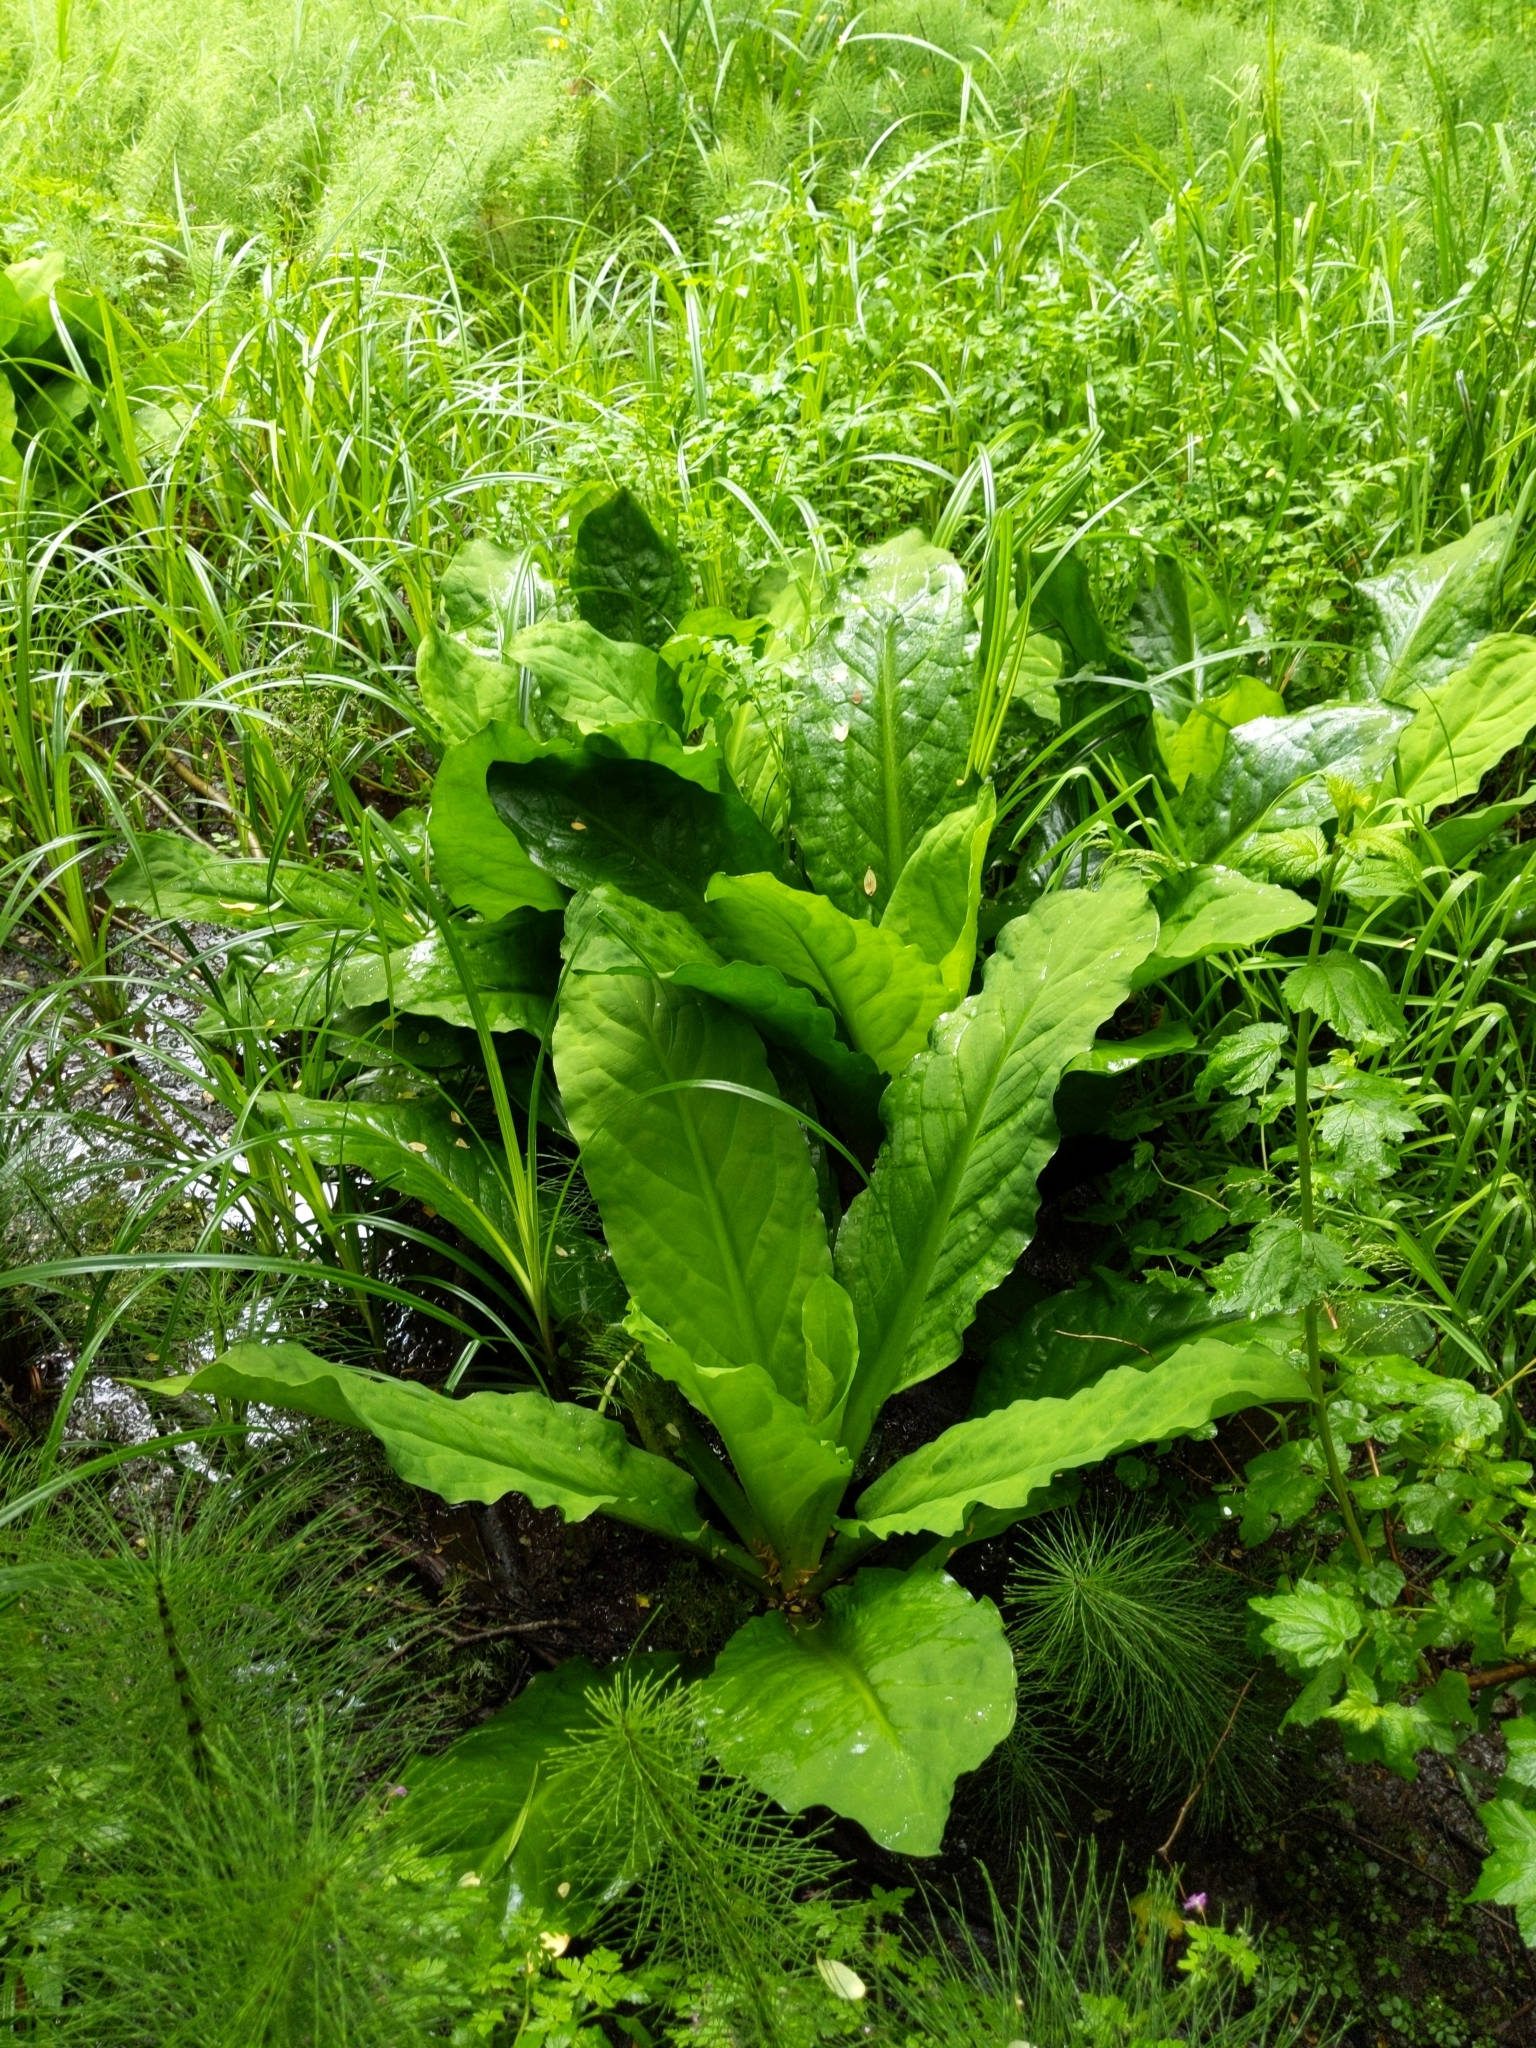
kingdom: Plantae
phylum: Tracheophyta
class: Liliopsida
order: Alismatales
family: Araceae
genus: Lysichiton
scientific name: Lysichiton americanus
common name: American skunk cabbage
